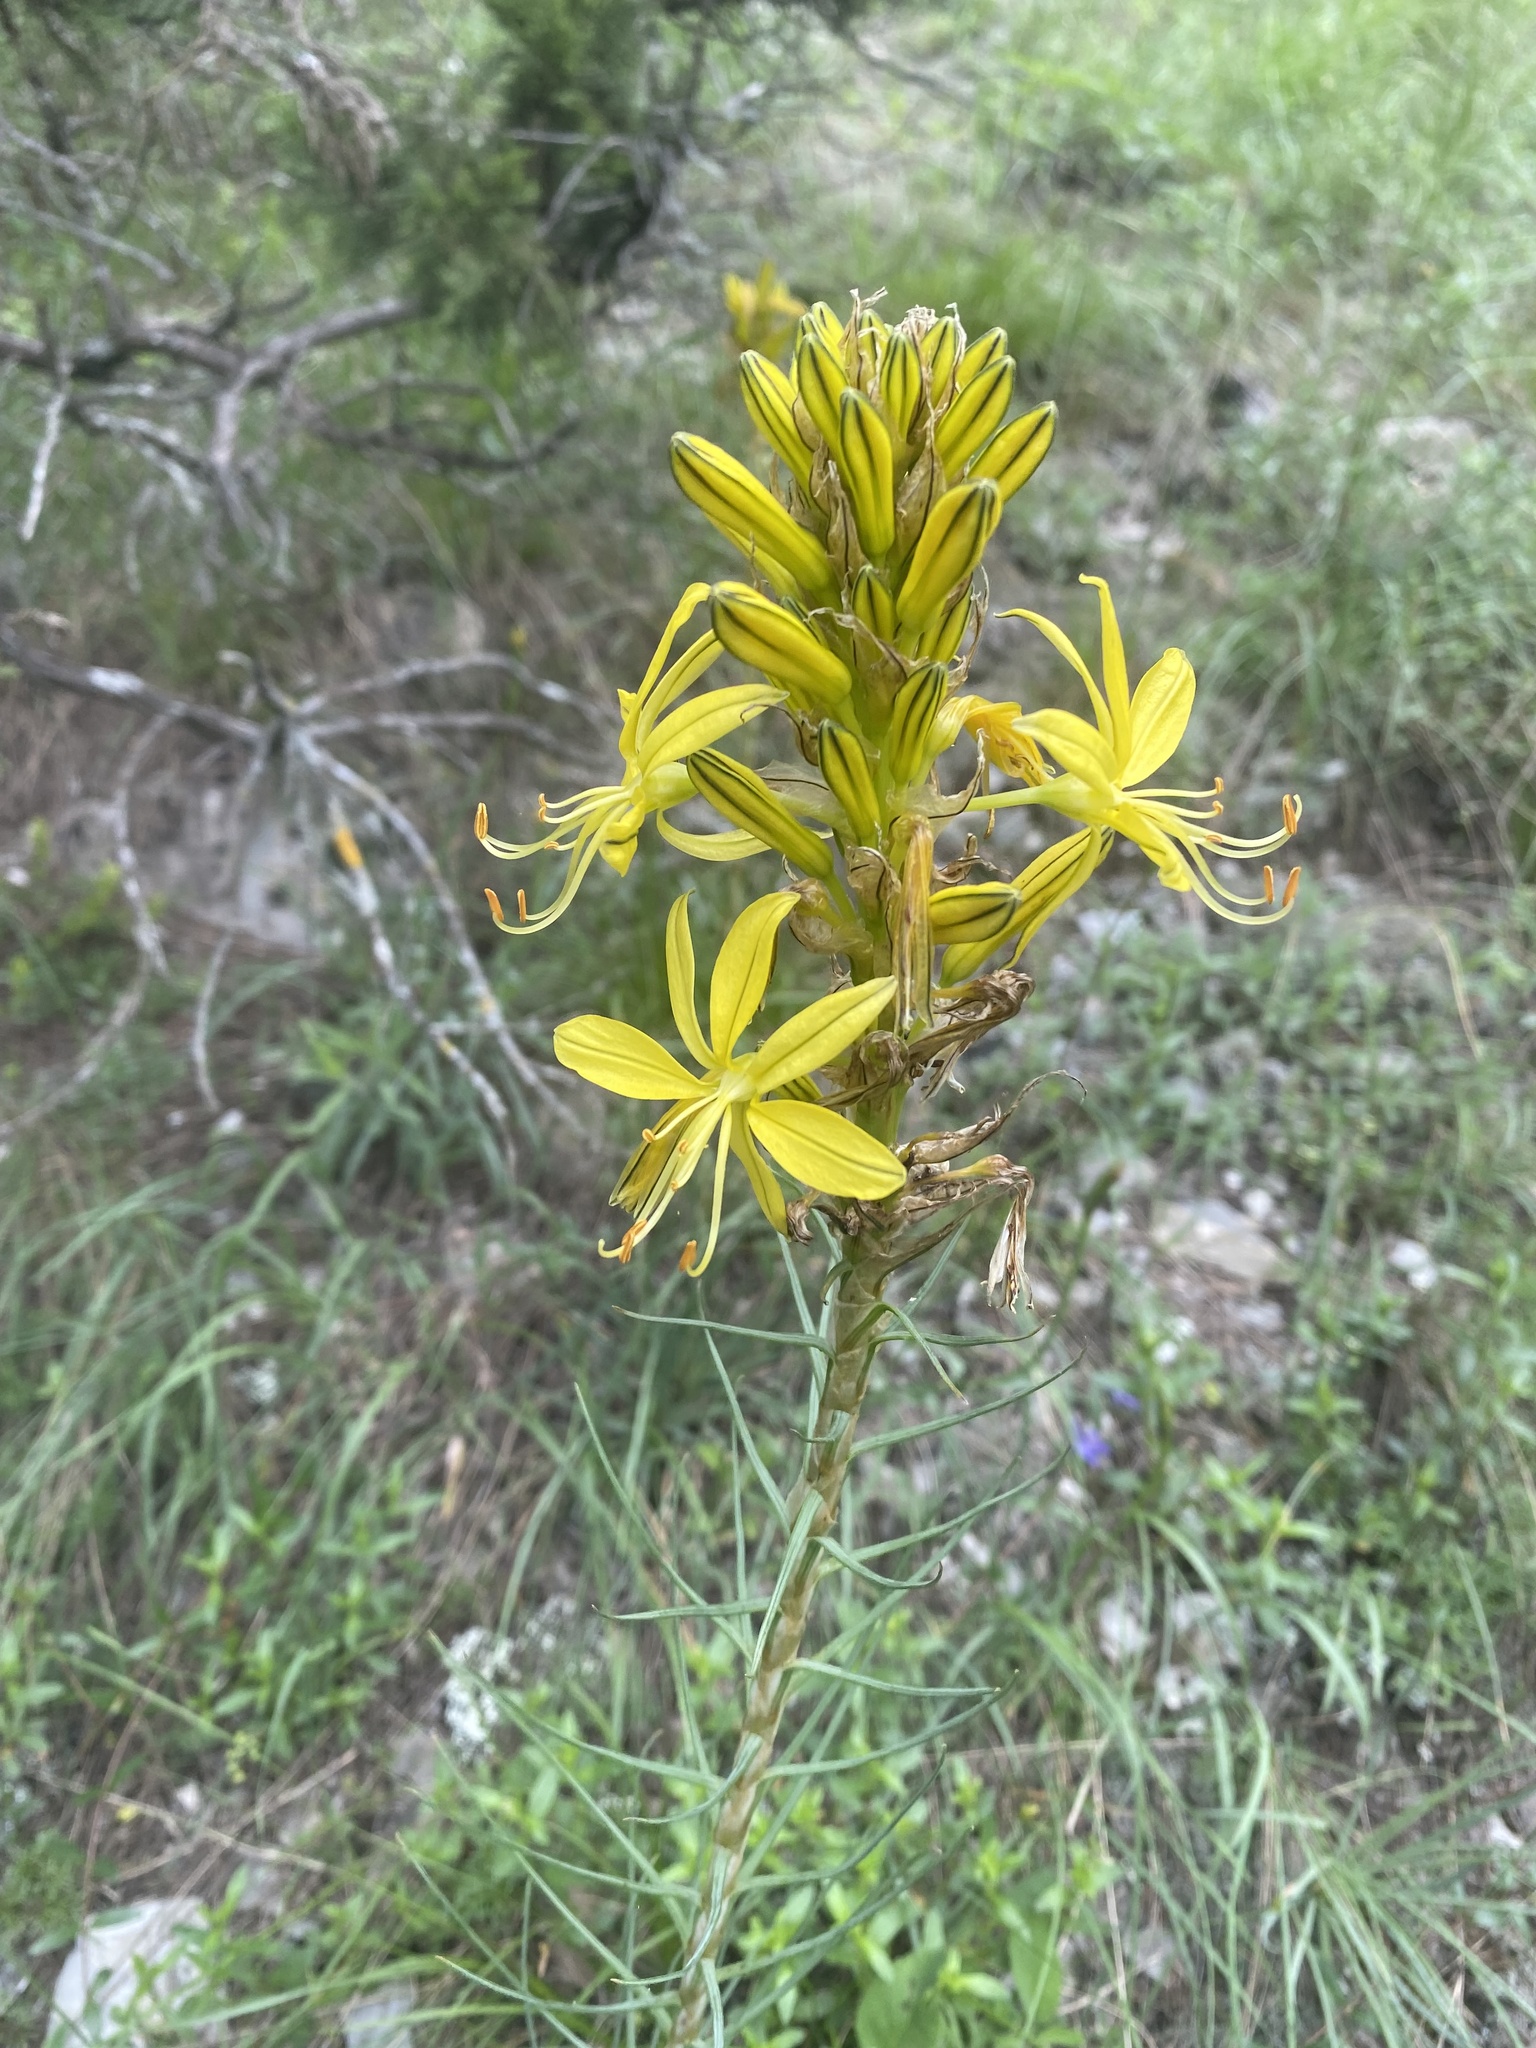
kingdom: Plantae
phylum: Tracheophyta
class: Liliopsida
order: Asparagales
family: Asphodelaceae
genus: Asphodeline
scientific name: Asphodeline lutea
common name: Yellow asphodel
